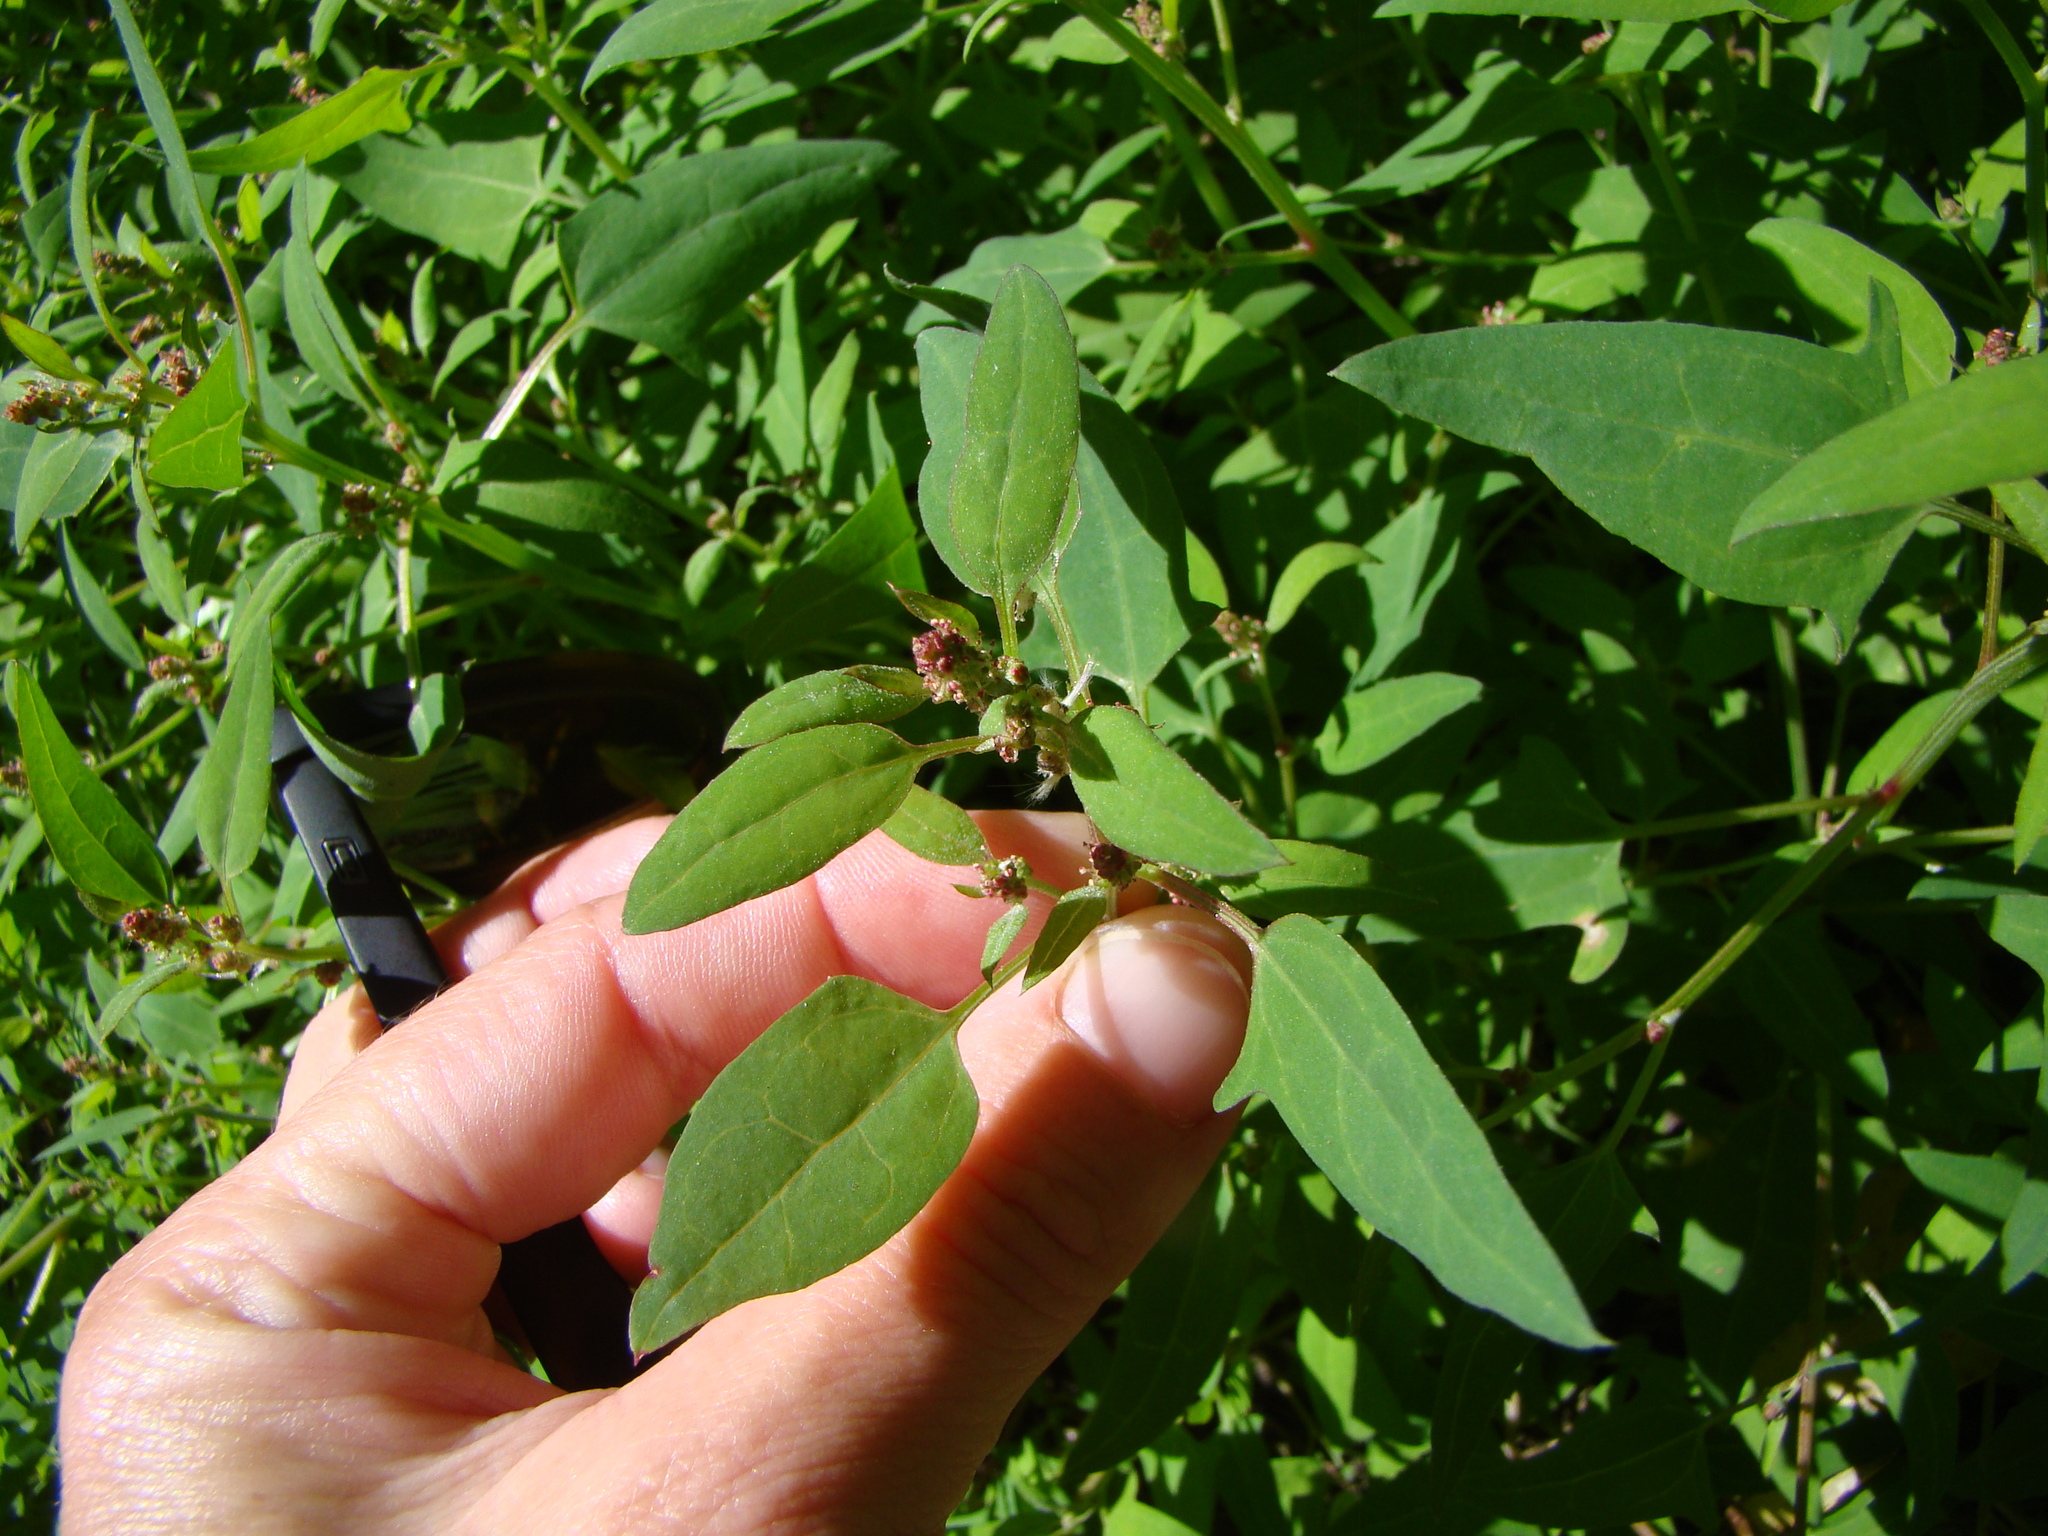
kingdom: Plantae
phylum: Tracheophyta
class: Magnoliopsida
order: Caryophyllales
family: Amaranthaceae
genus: Atriplex
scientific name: Atriplex prostrata
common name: Spear-leaved orache
